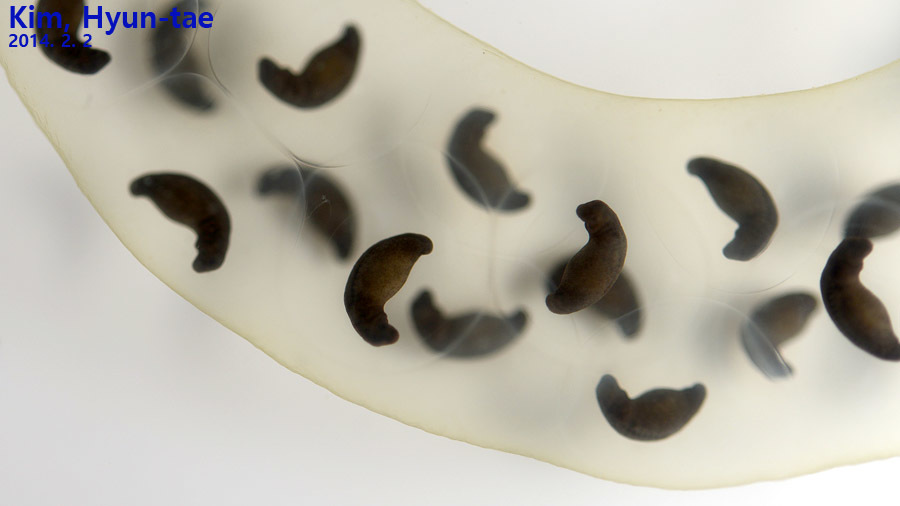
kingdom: Animalia
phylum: Chordata
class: Amphibia
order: Caudata
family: Hynobiidae
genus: Hynobius
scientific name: Hynobius leechii
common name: Gensan salamander
